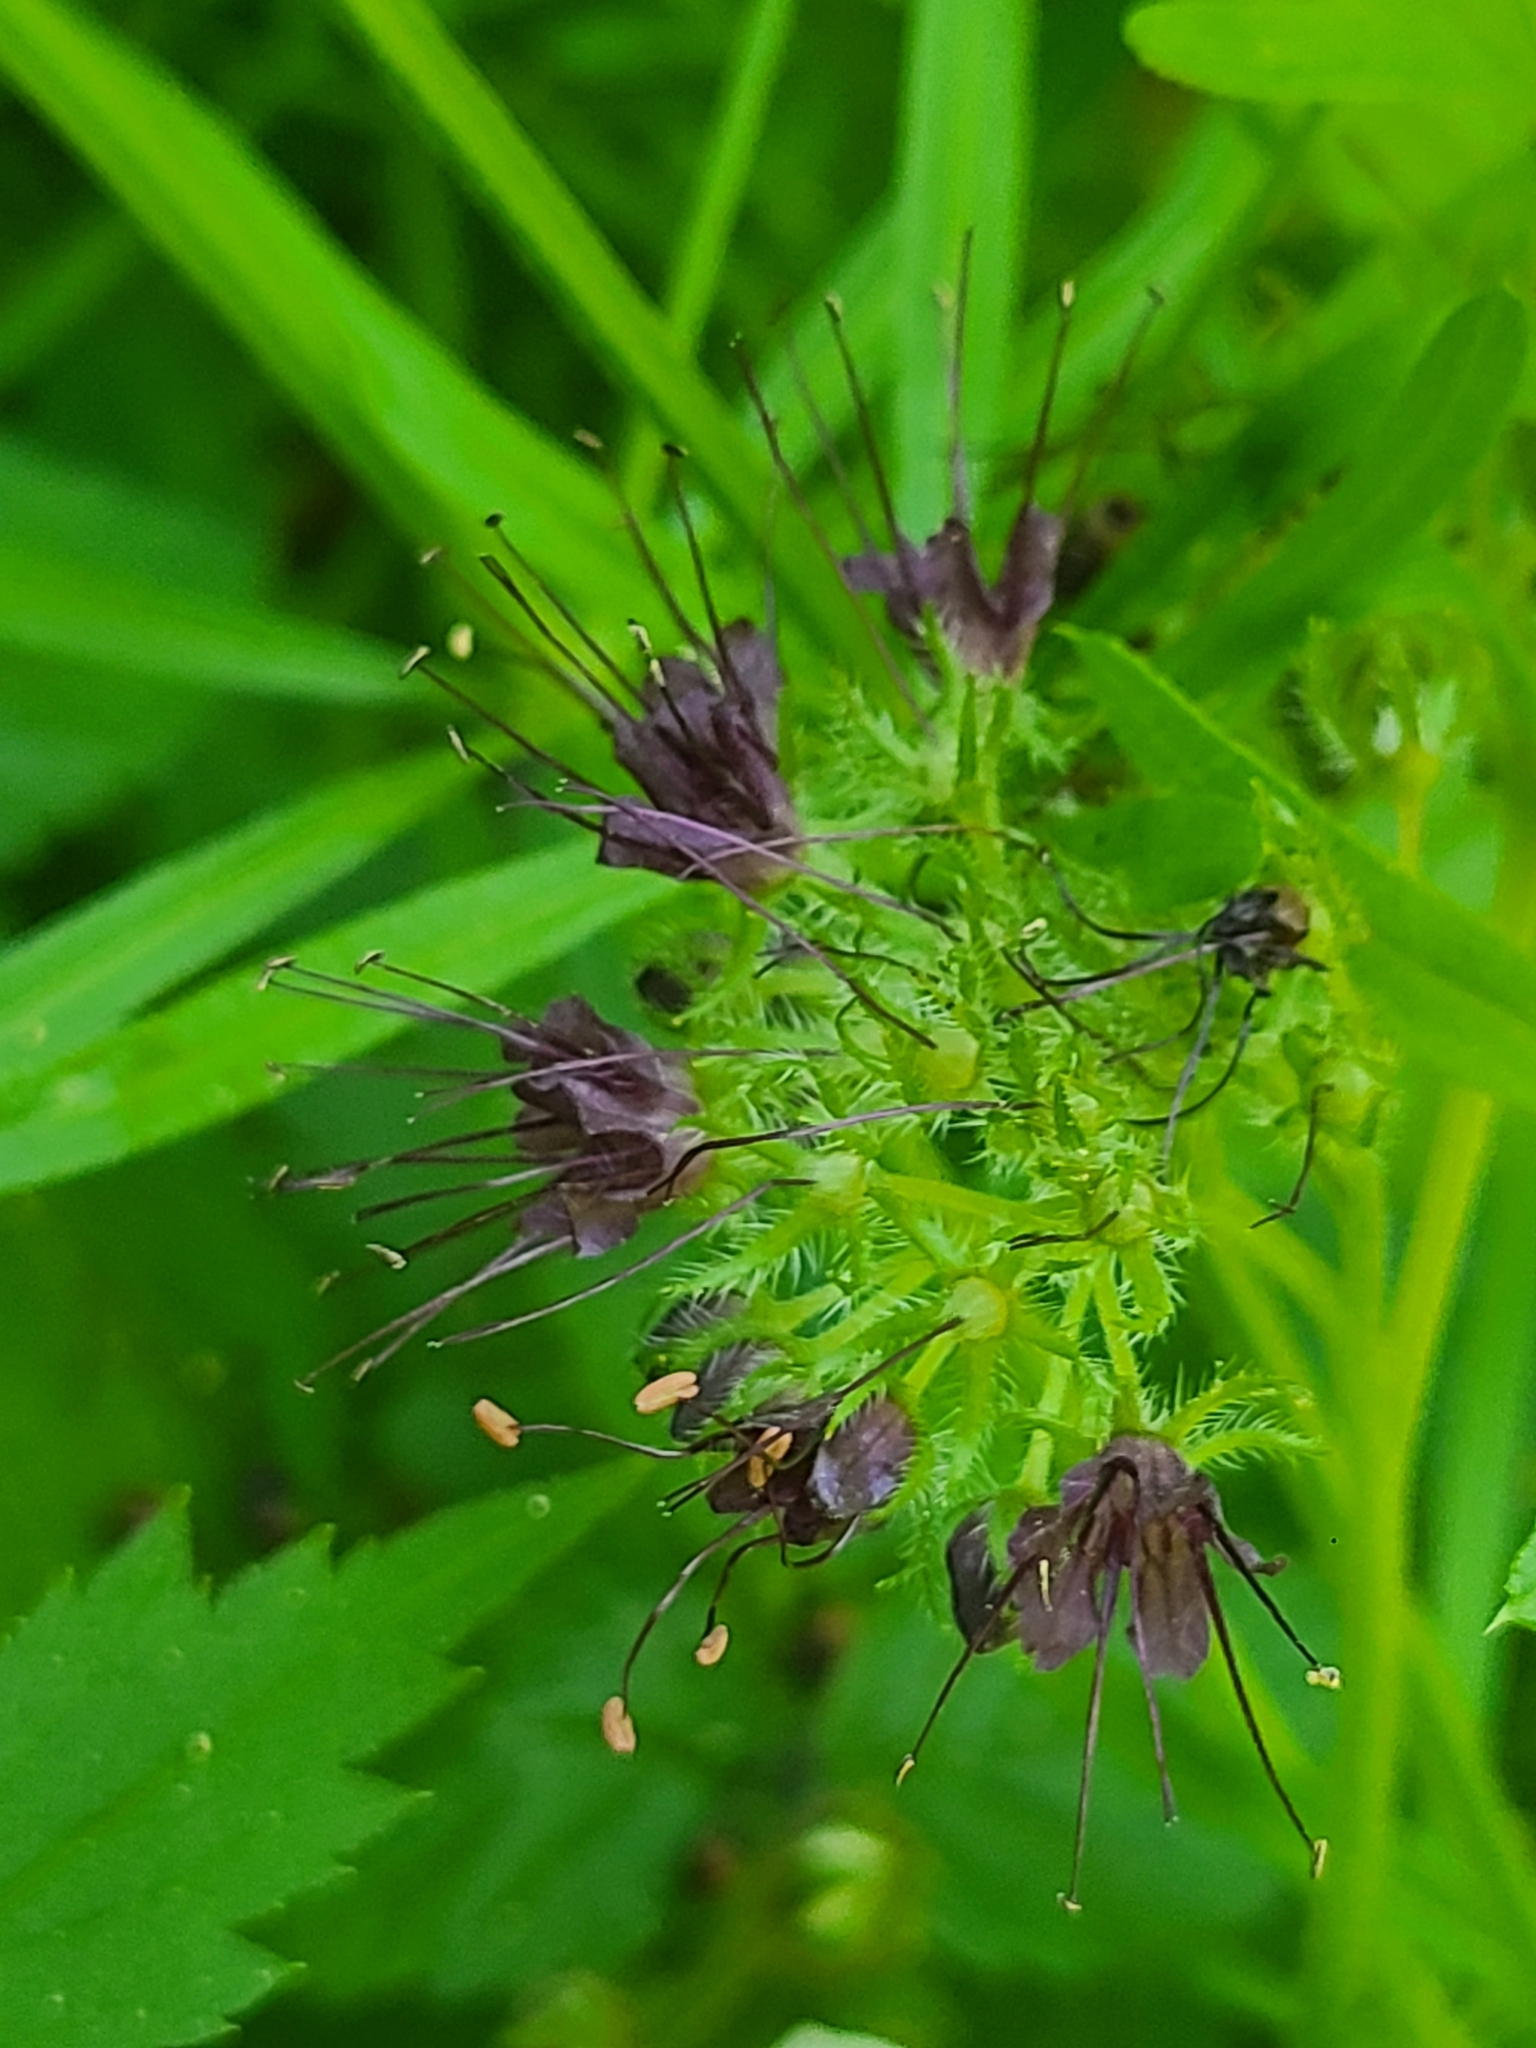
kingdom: Plantae
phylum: Tracheophyta
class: Magnoliopsida
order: Boraginales
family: Hydrophyllaceae
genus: Hydrophyllum
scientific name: Hydrophyllum tenuipes
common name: Pacific waterleaf
